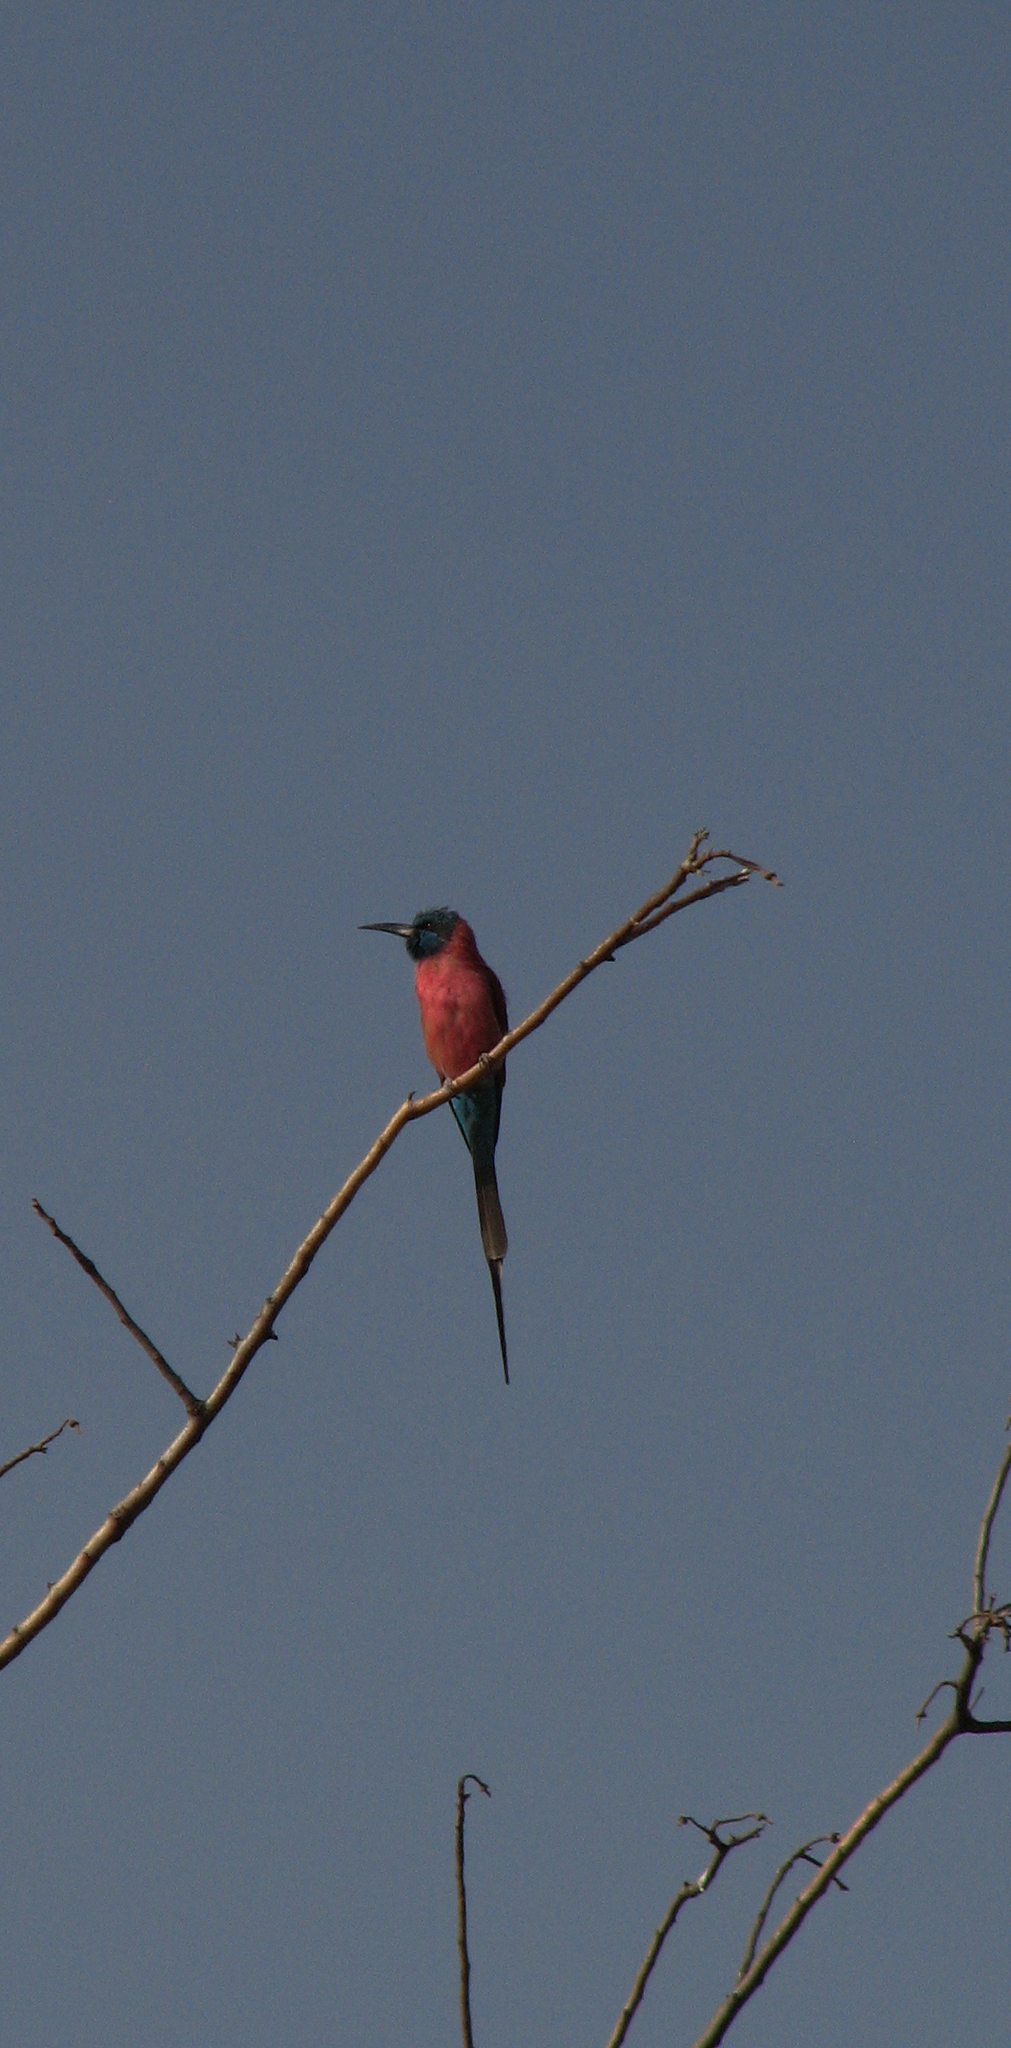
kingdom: Animalia
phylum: Chordata
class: Aves
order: Coraciiformes
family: Meropidae
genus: Merops
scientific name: Merops nubicus
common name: Northern carmine bee-eater
